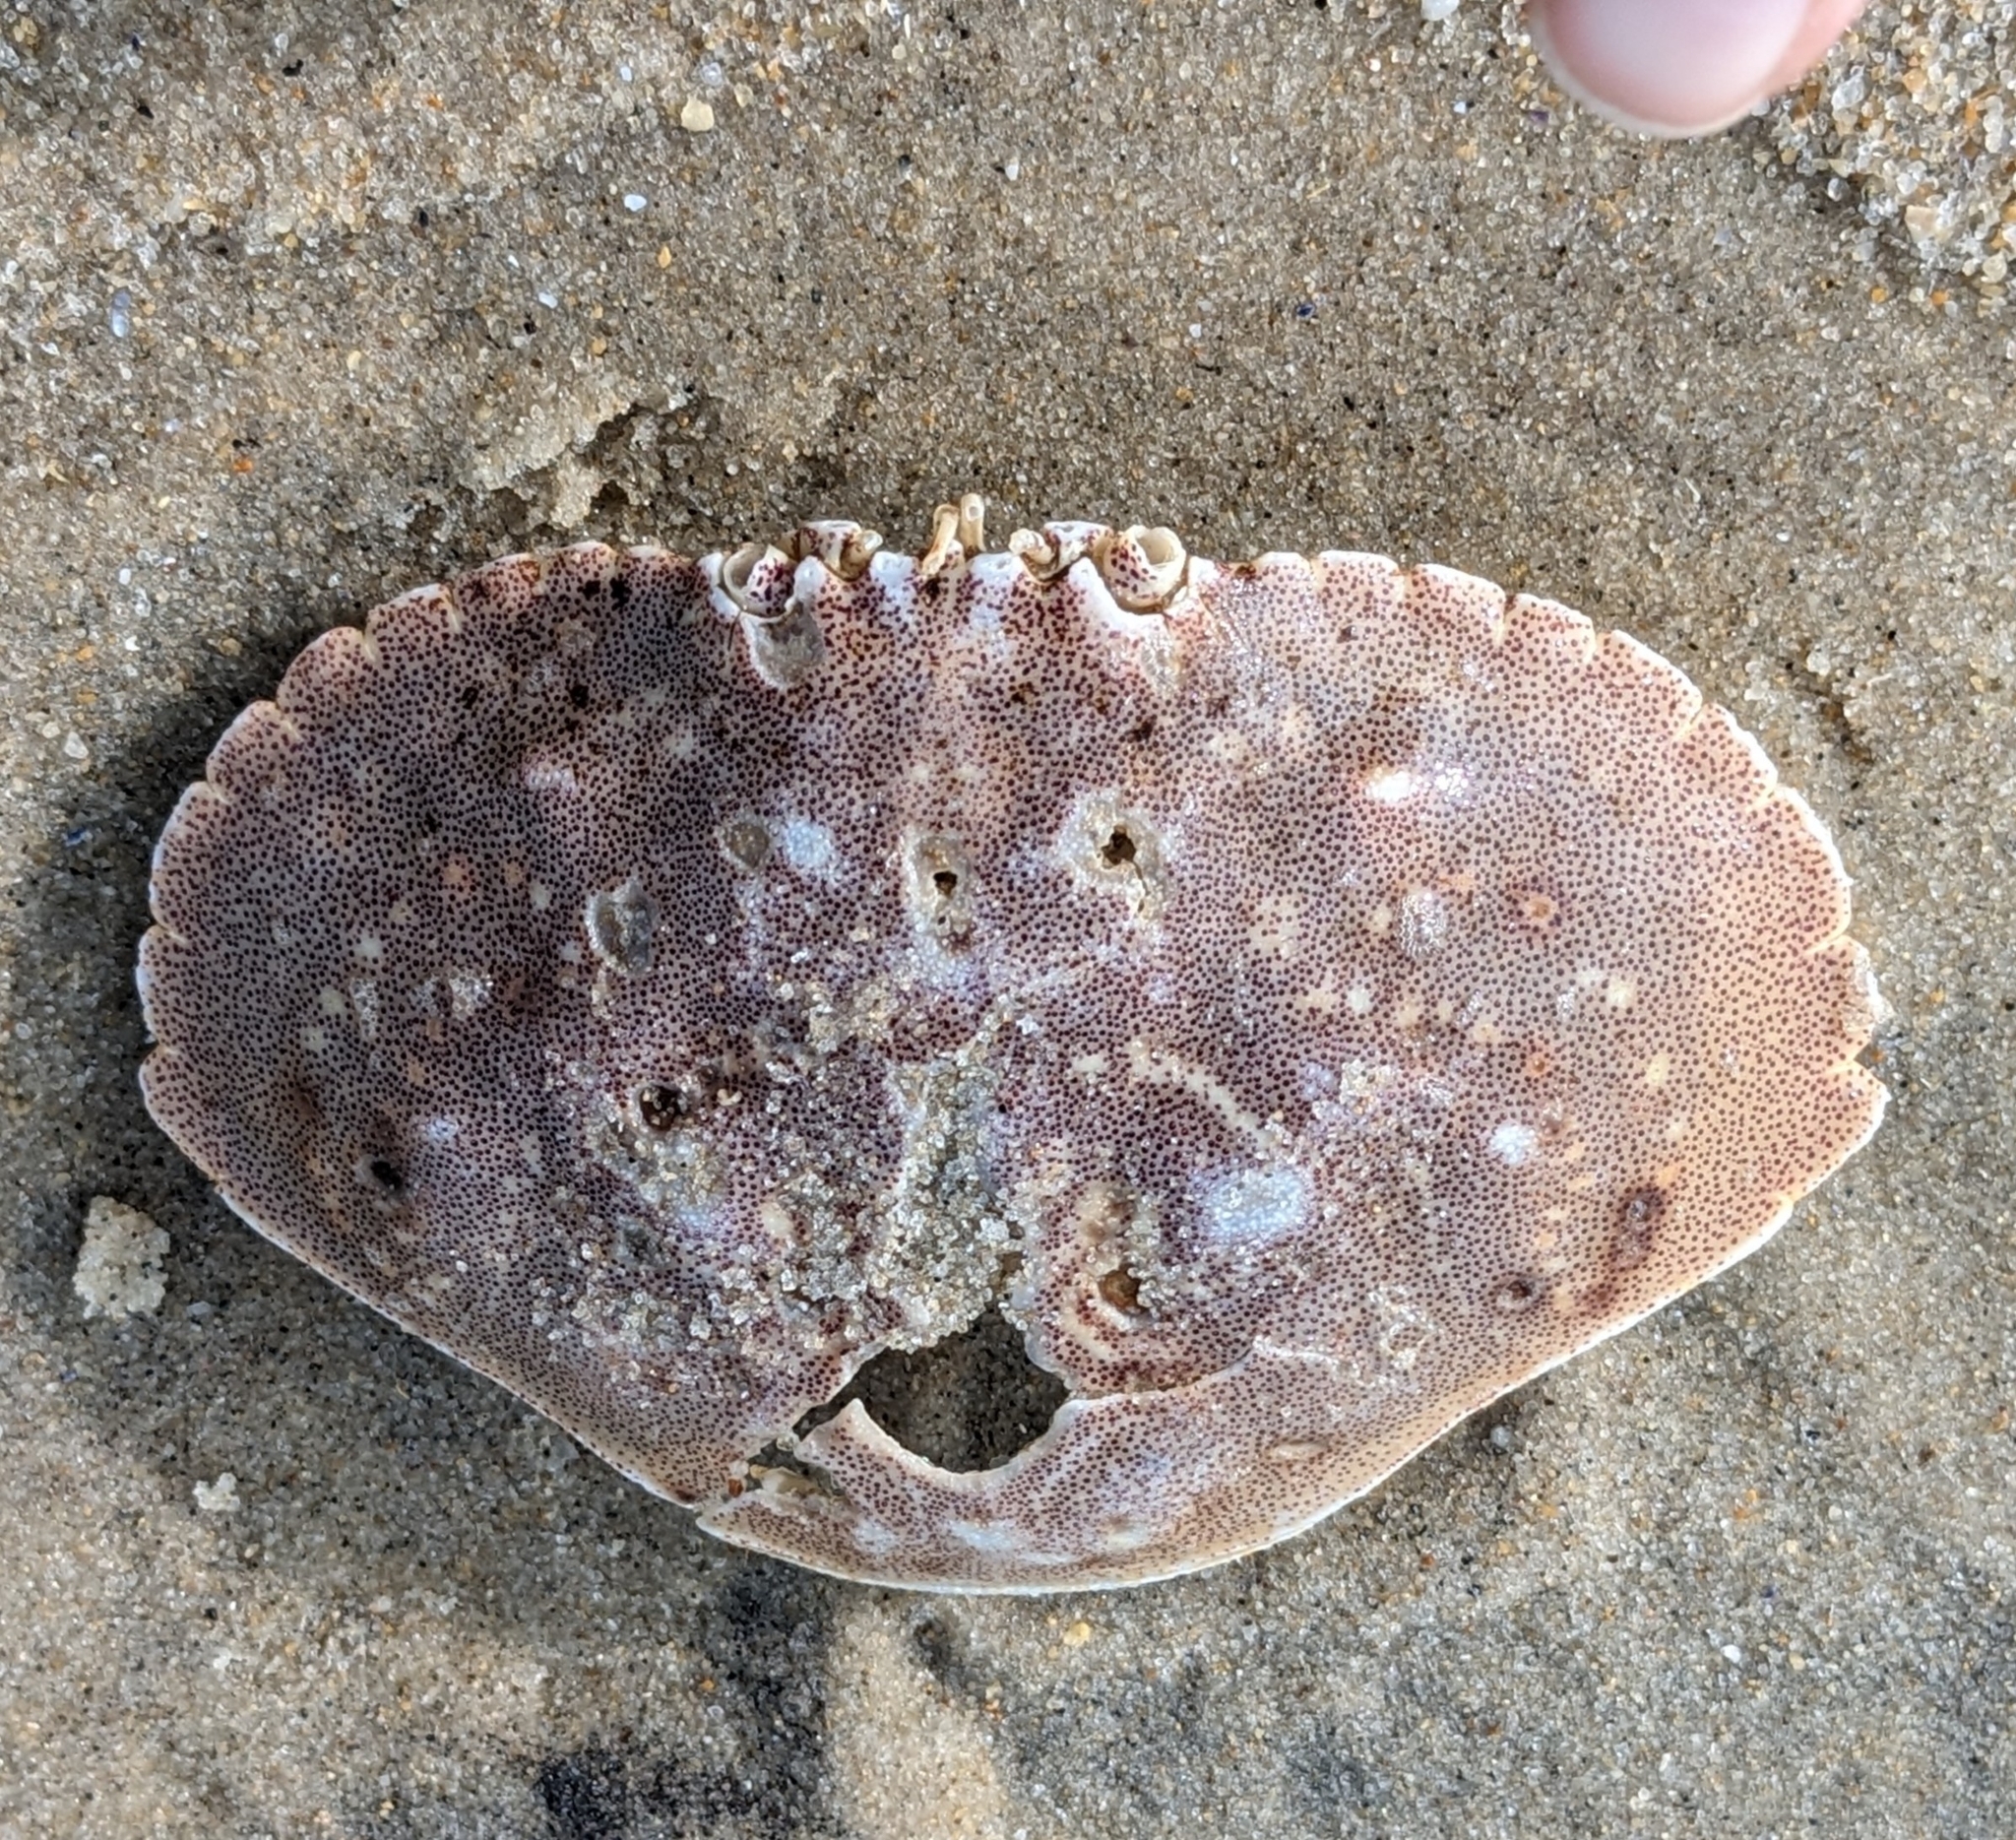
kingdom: Animalia
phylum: Arthropoda
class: Malacostraca
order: Decapoda
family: Cancridae
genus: Cancer
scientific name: Cancer irroratus
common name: Atlantic rock crab
